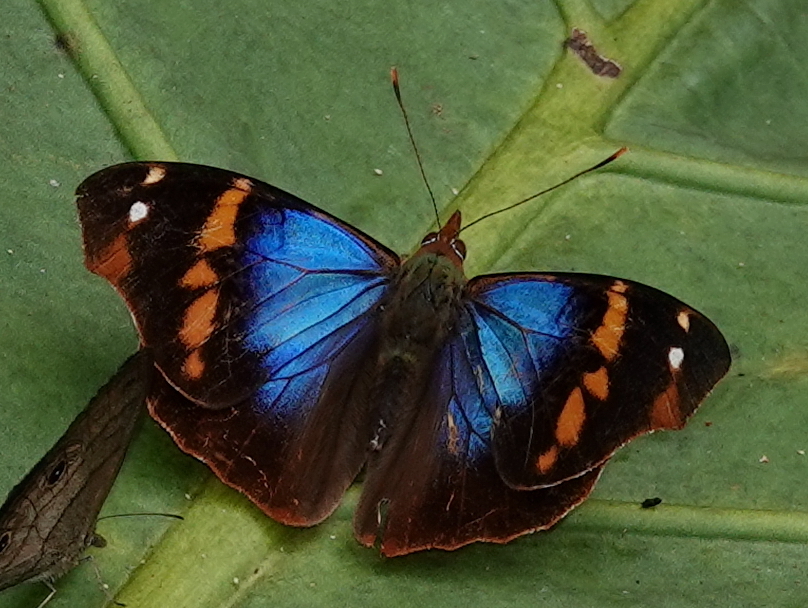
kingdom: Animalia
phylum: Arthropoda
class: Insecta
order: Lepidoptera
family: Nymphalidae
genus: Epiphile
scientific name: Epiphile epimenes
